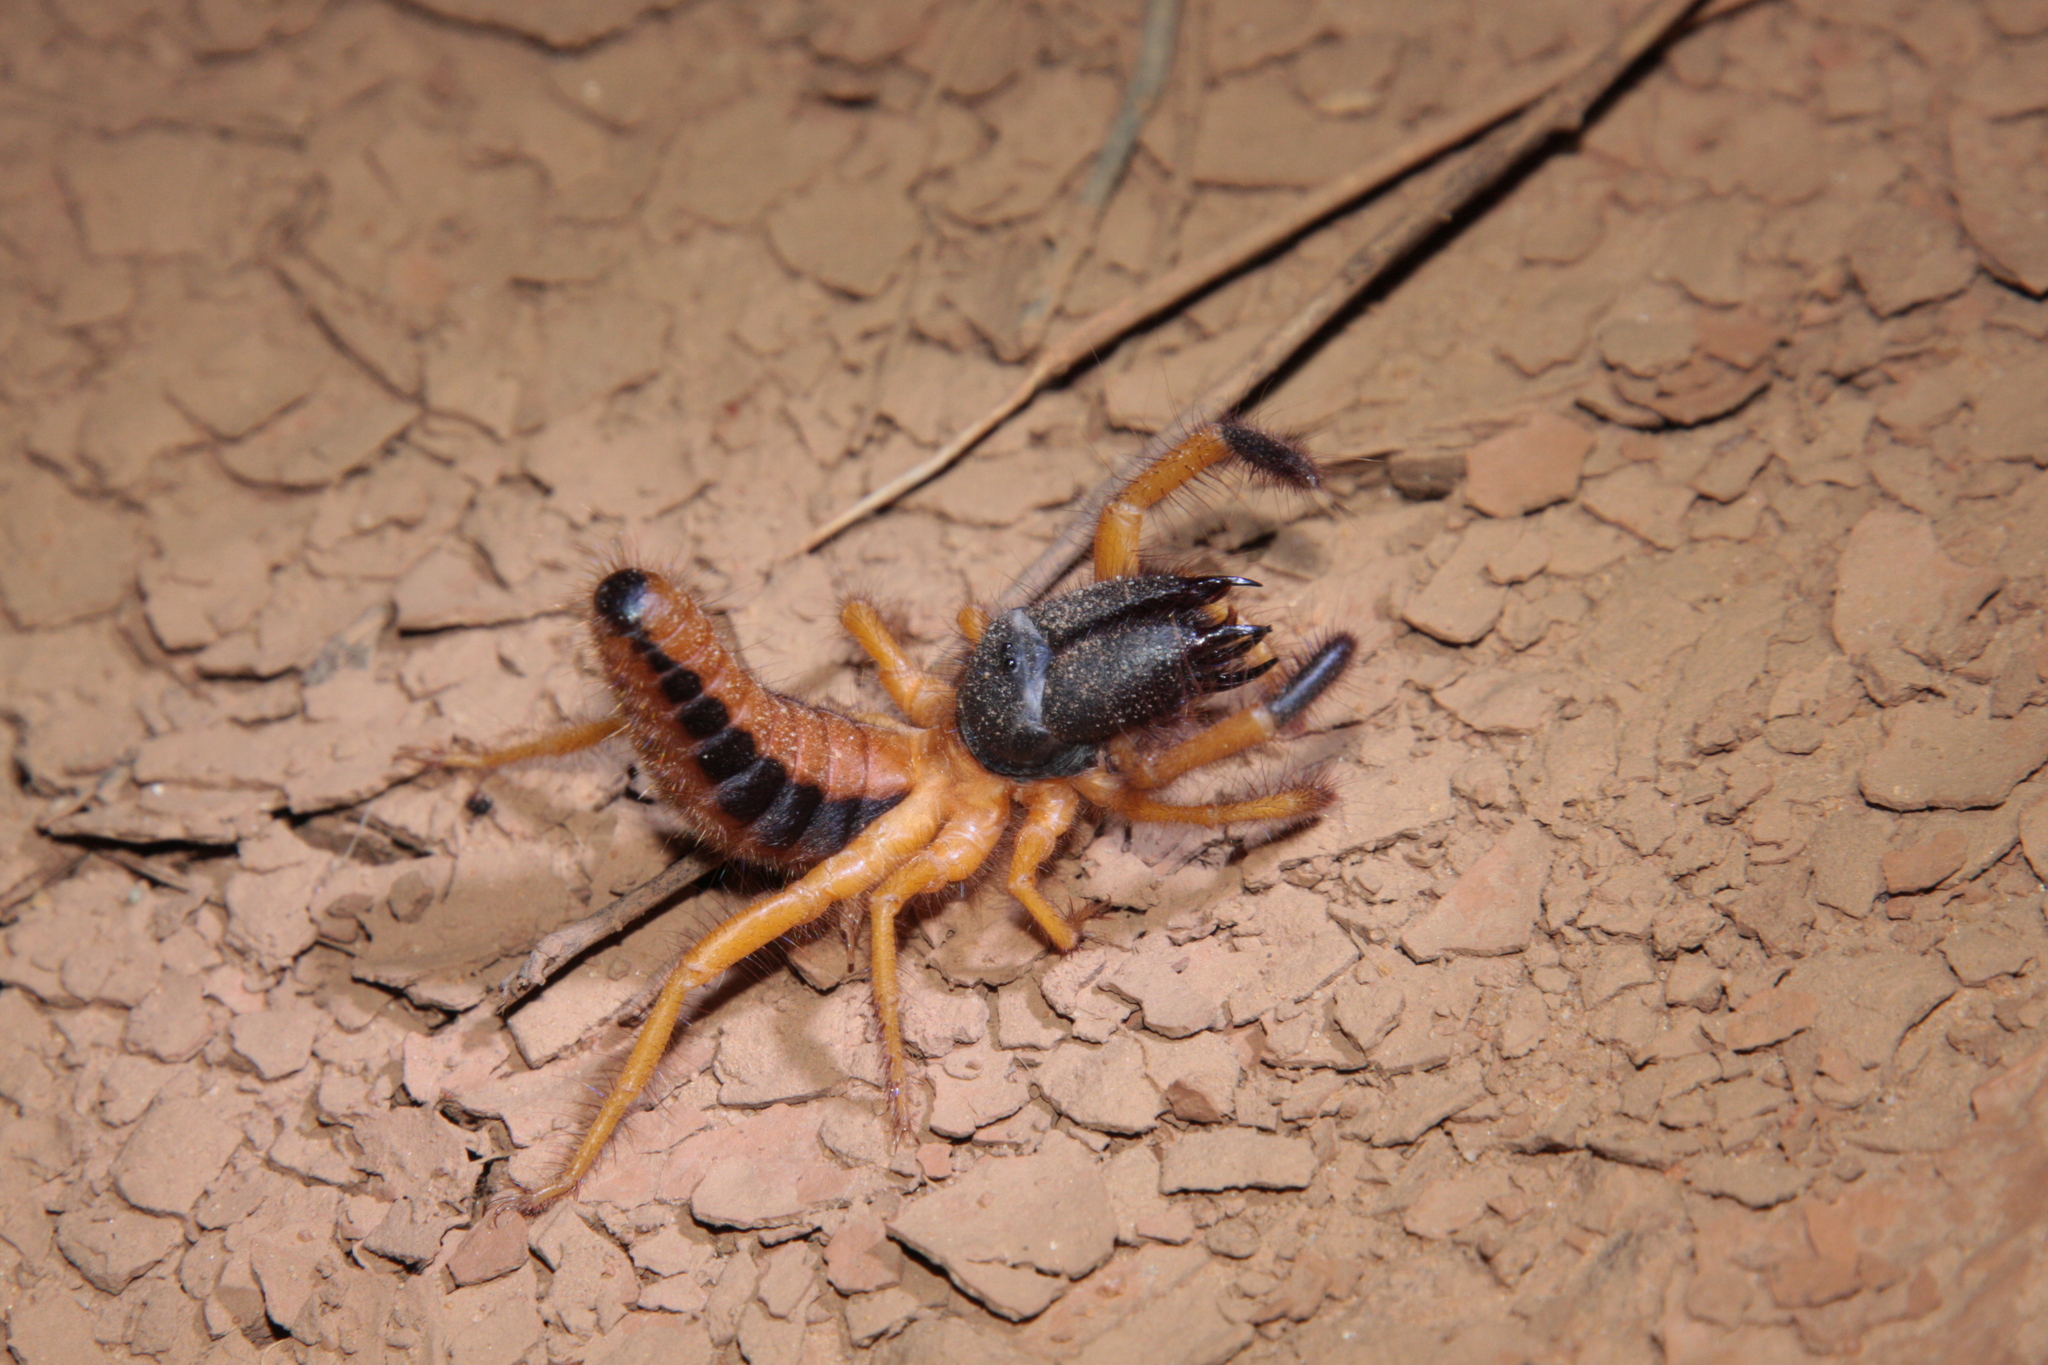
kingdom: Animalia
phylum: Arthropoda
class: Arachnida
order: Solifugae
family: Rhagodidae
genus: Rhagoderma
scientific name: Rhagoderma tricolor
